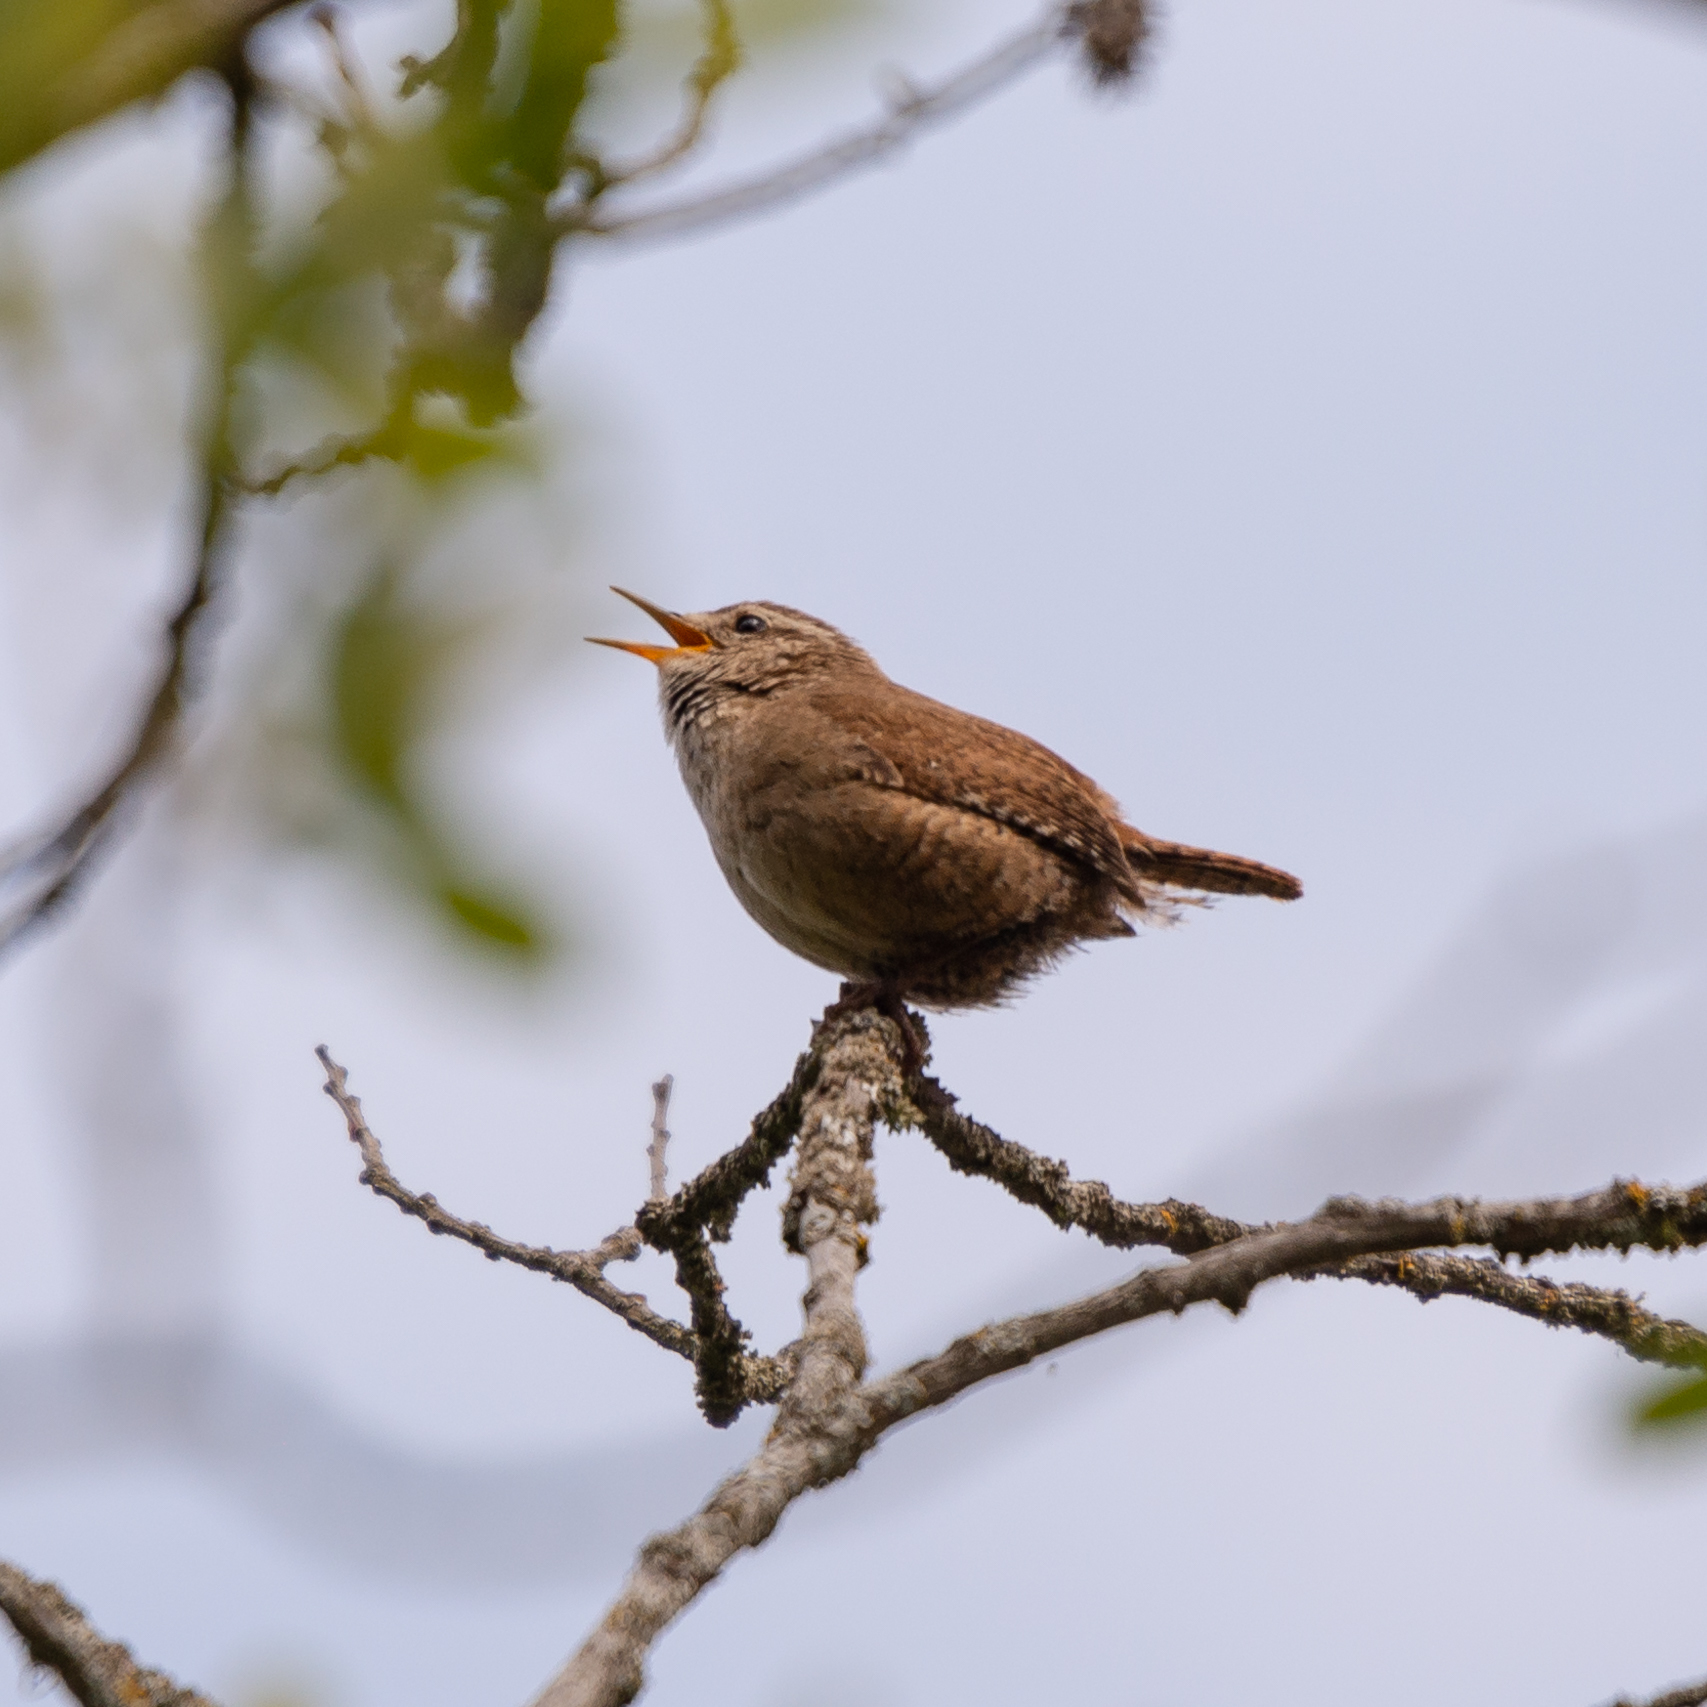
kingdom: Animalia
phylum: Chordata
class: Aves
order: Passeriformes
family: Troglodytidae
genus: Troglodytes
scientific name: Troglodytes troglodytes
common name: Eurasian wren
